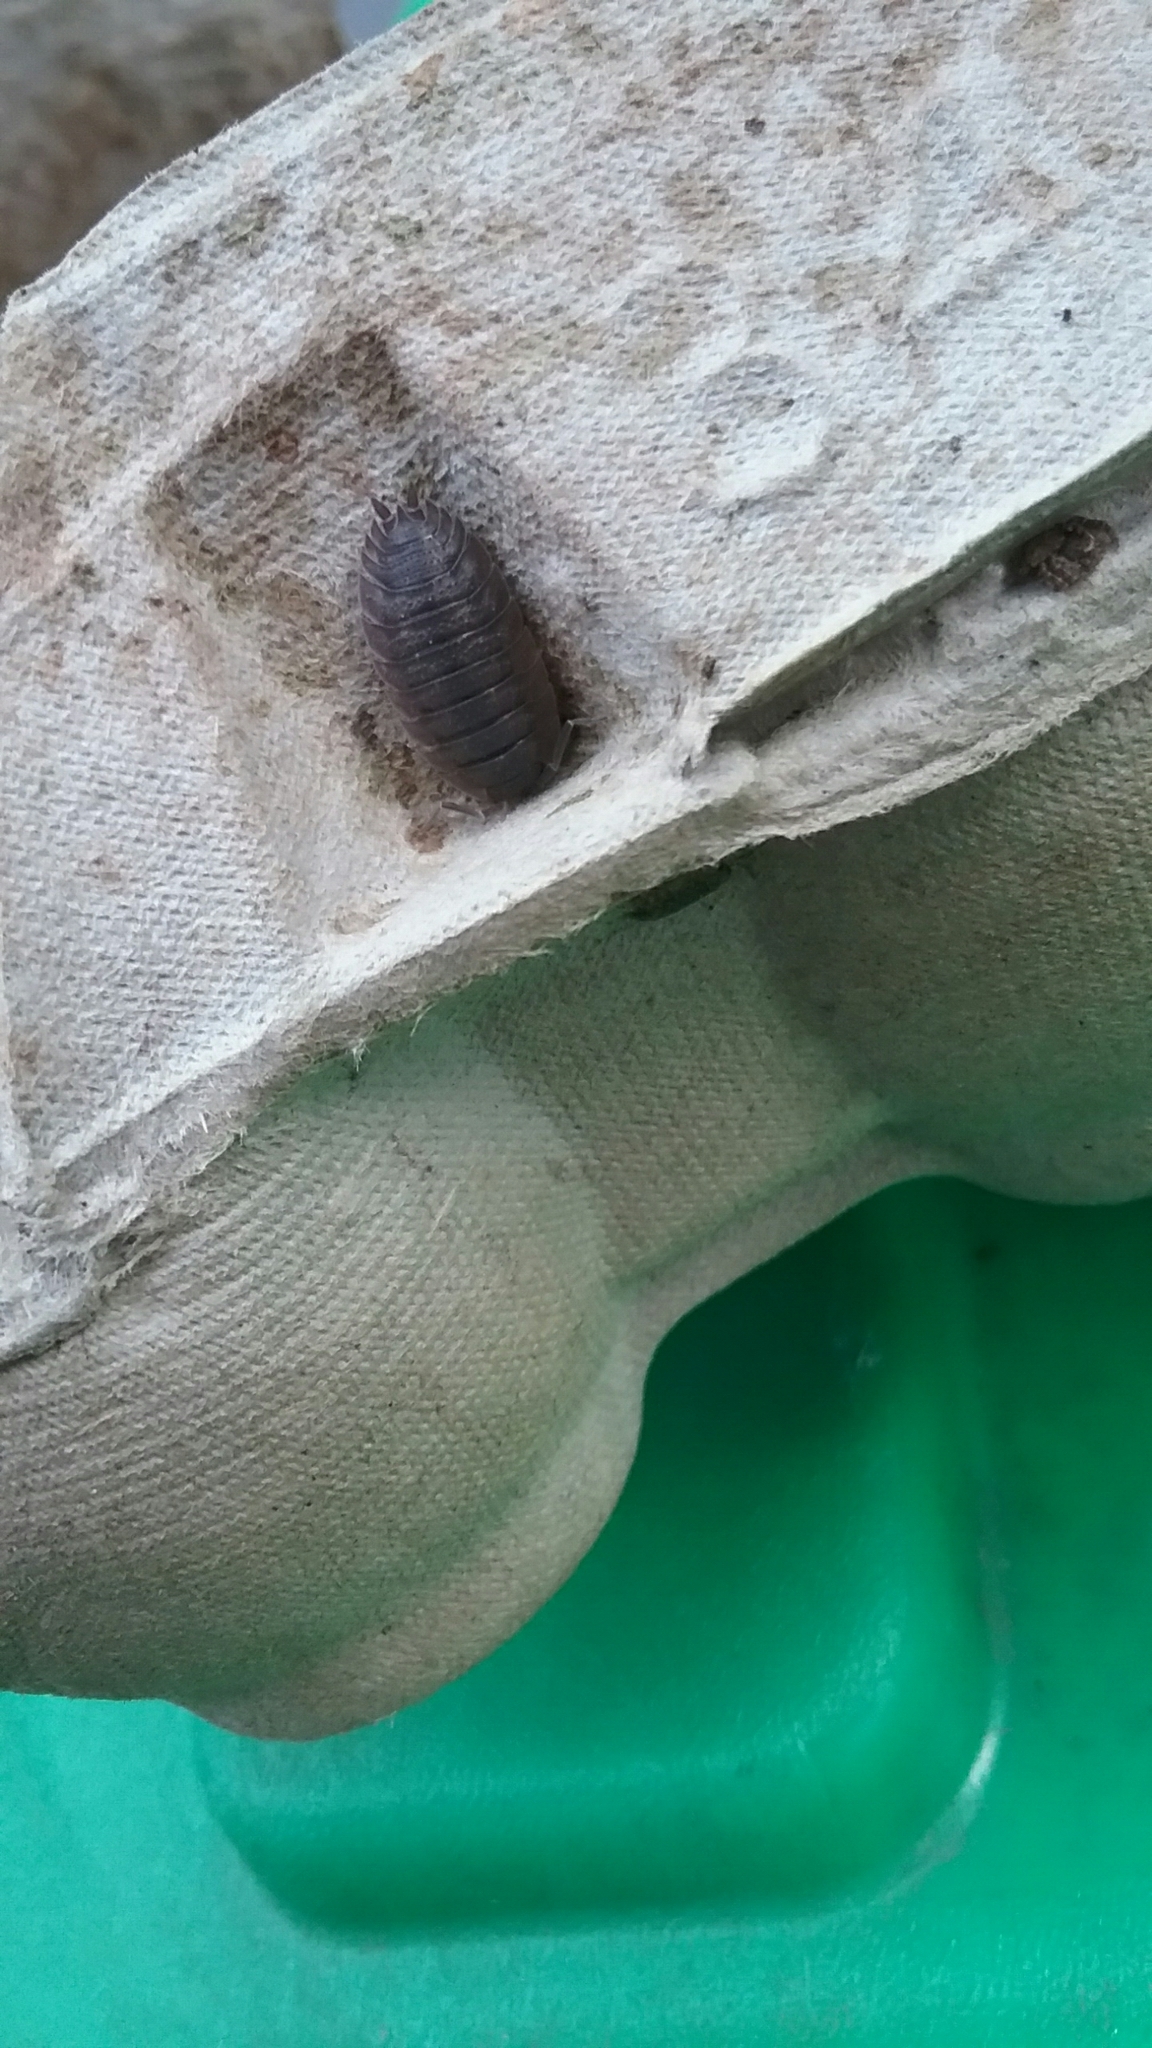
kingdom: Animalia
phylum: Arthropoda
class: Malacostraca
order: Isopoda
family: Porcellionidae
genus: Porcellio
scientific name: Porcellio scaber
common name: Common rough woodlouse
